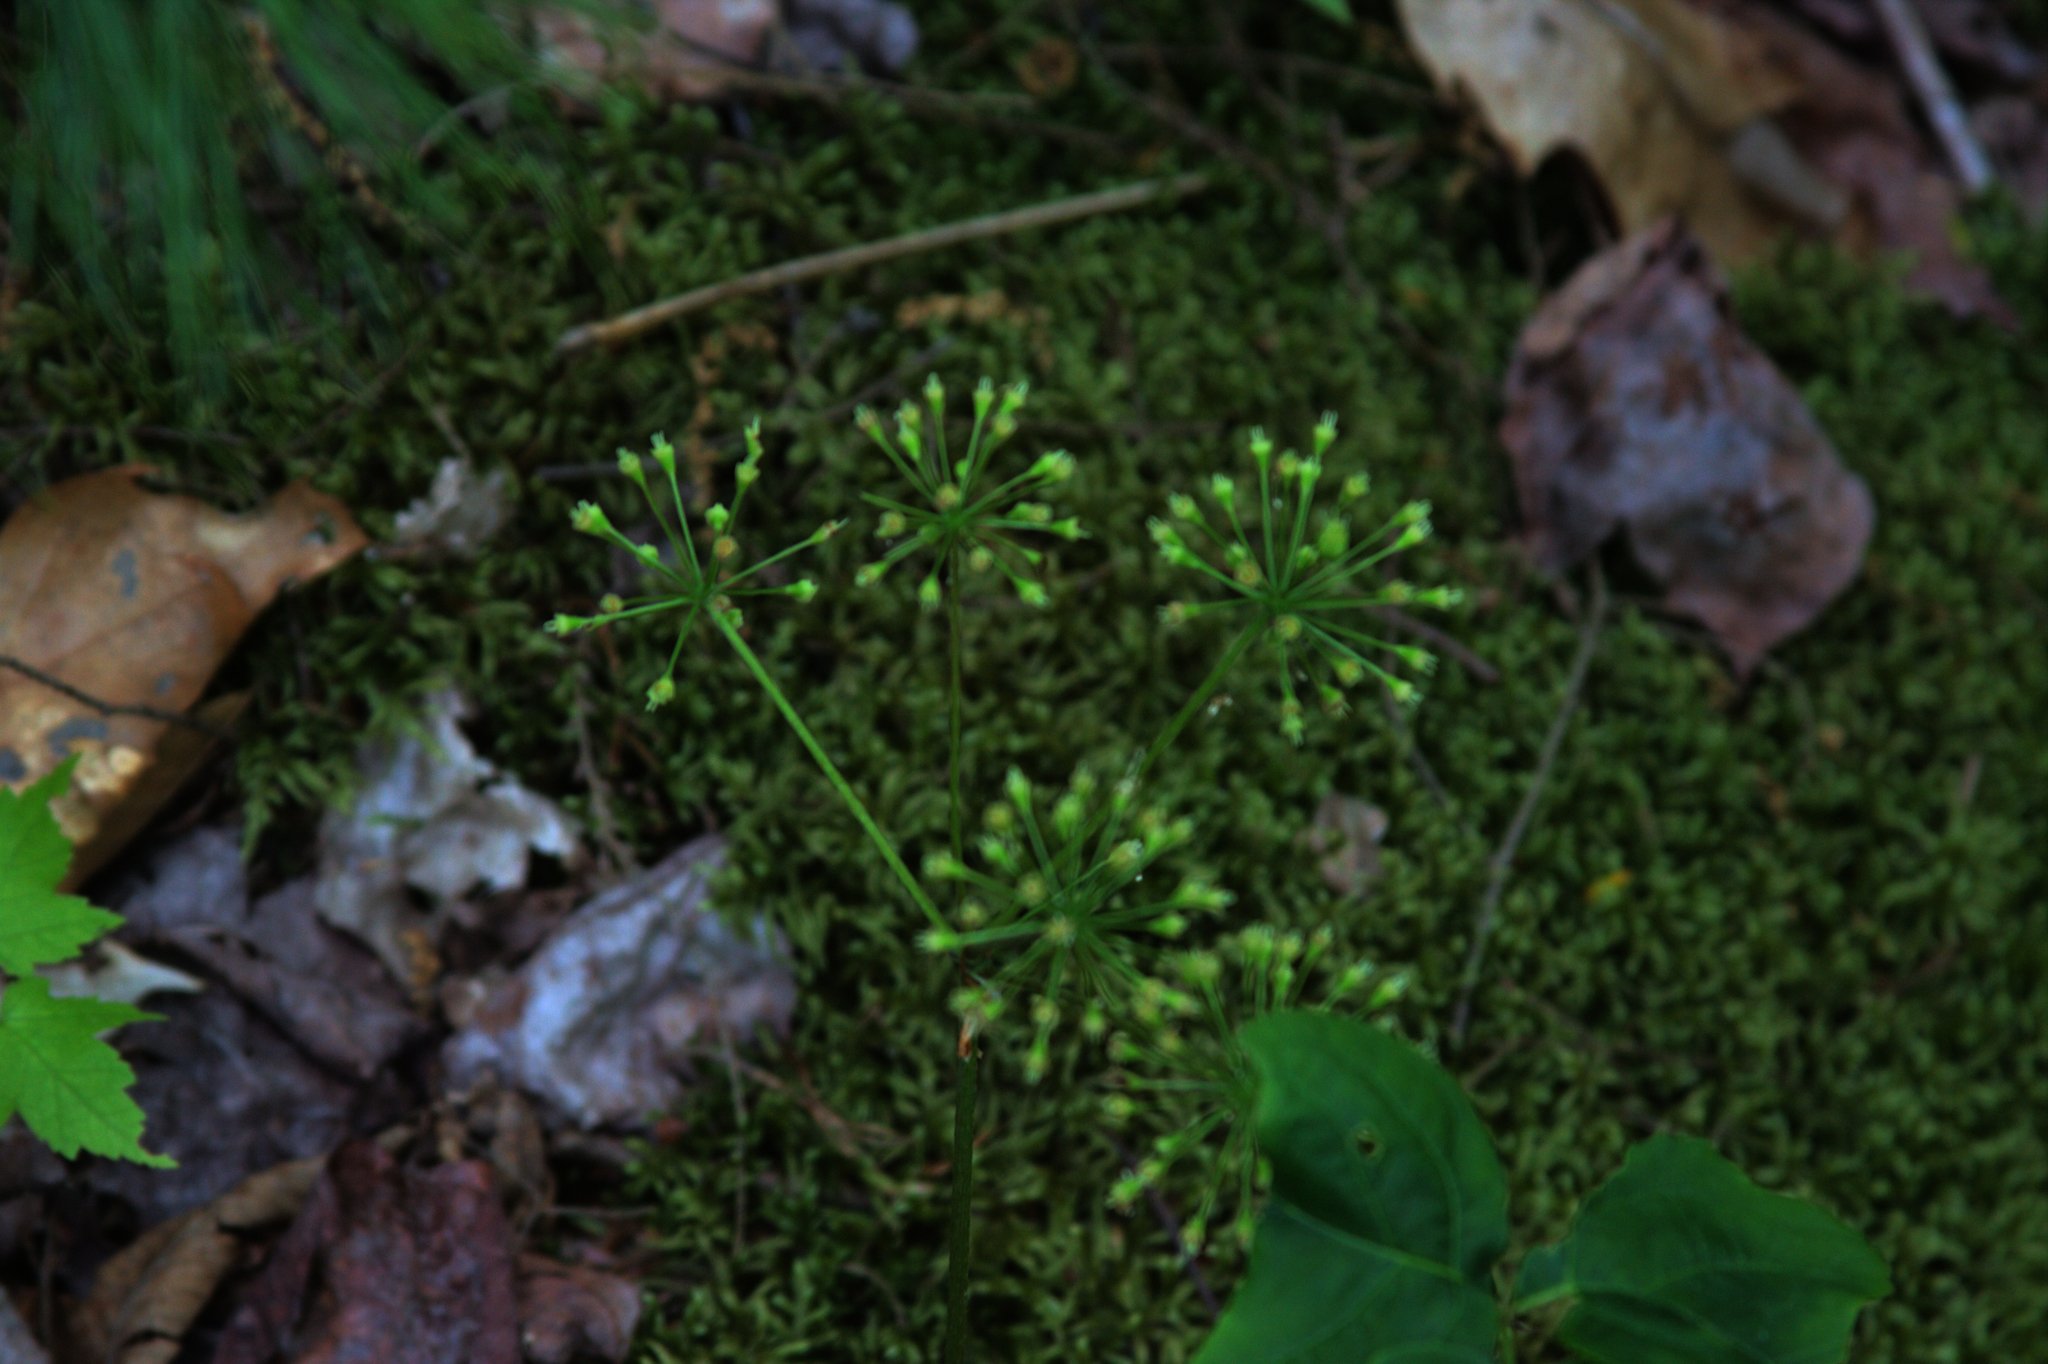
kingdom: Plantae
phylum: Tracheophyta
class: Magnoliopsida
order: Apiales
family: Araliaceae
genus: Aralia
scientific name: Aralia nudicaulis
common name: Wild sarsaparilla
